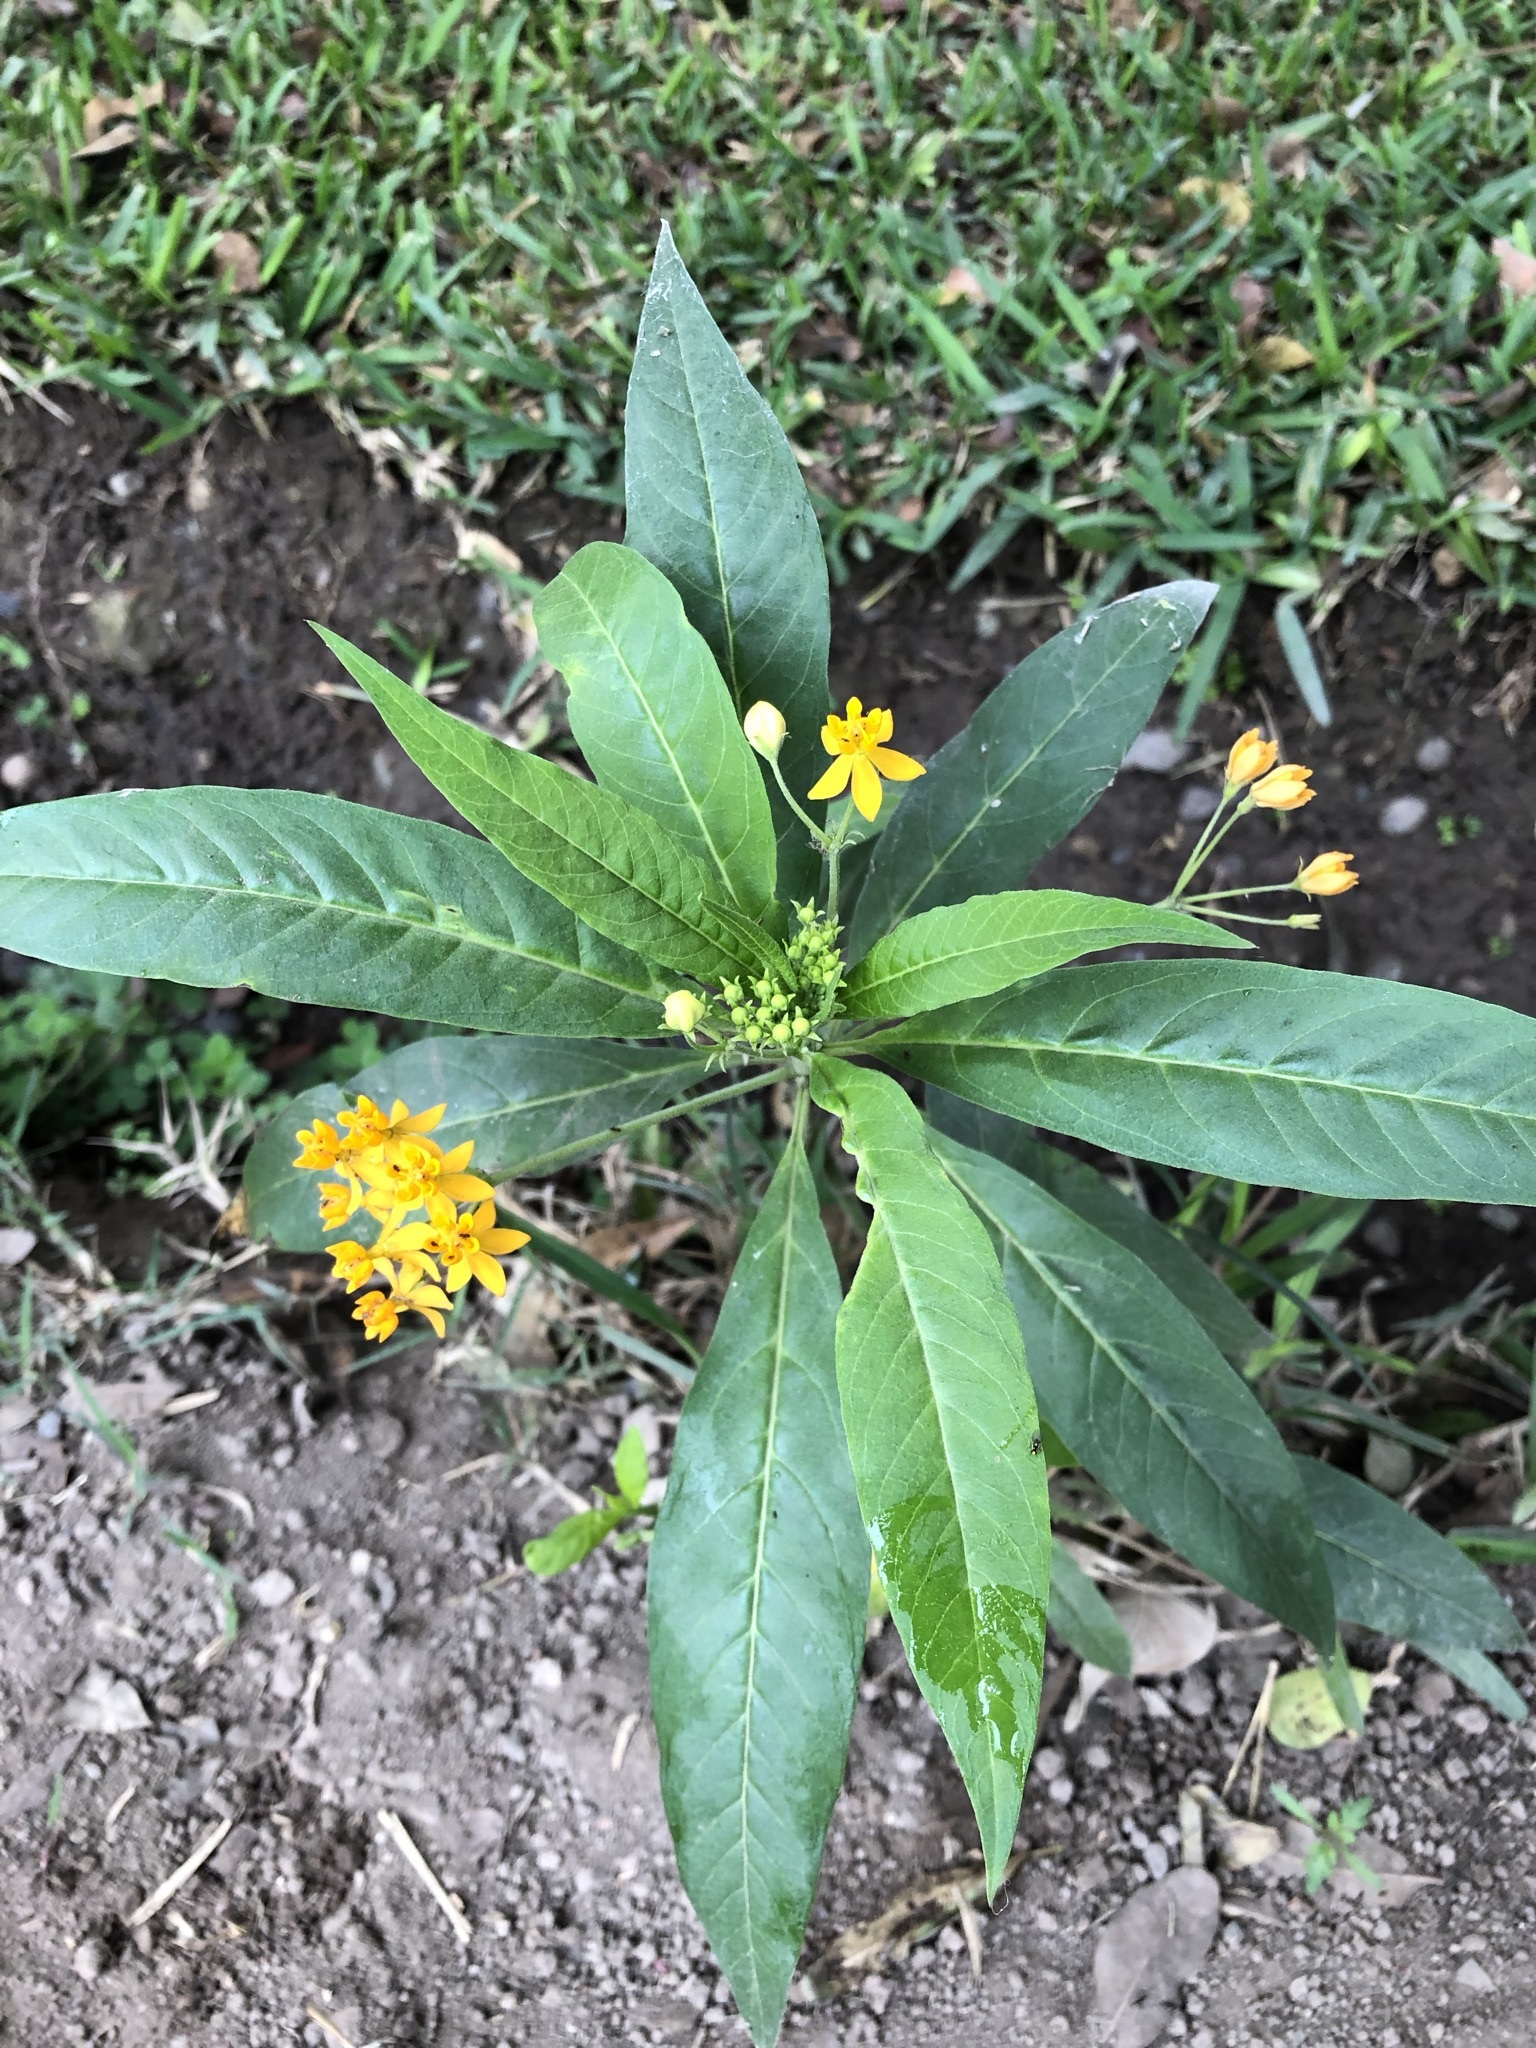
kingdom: Plantae
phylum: Tracheophyta
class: Magnoliopsida
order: Gentianales
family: Apocynaceae
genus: Asclepias
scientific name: Asclepias curassavica
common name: Bloodflower
